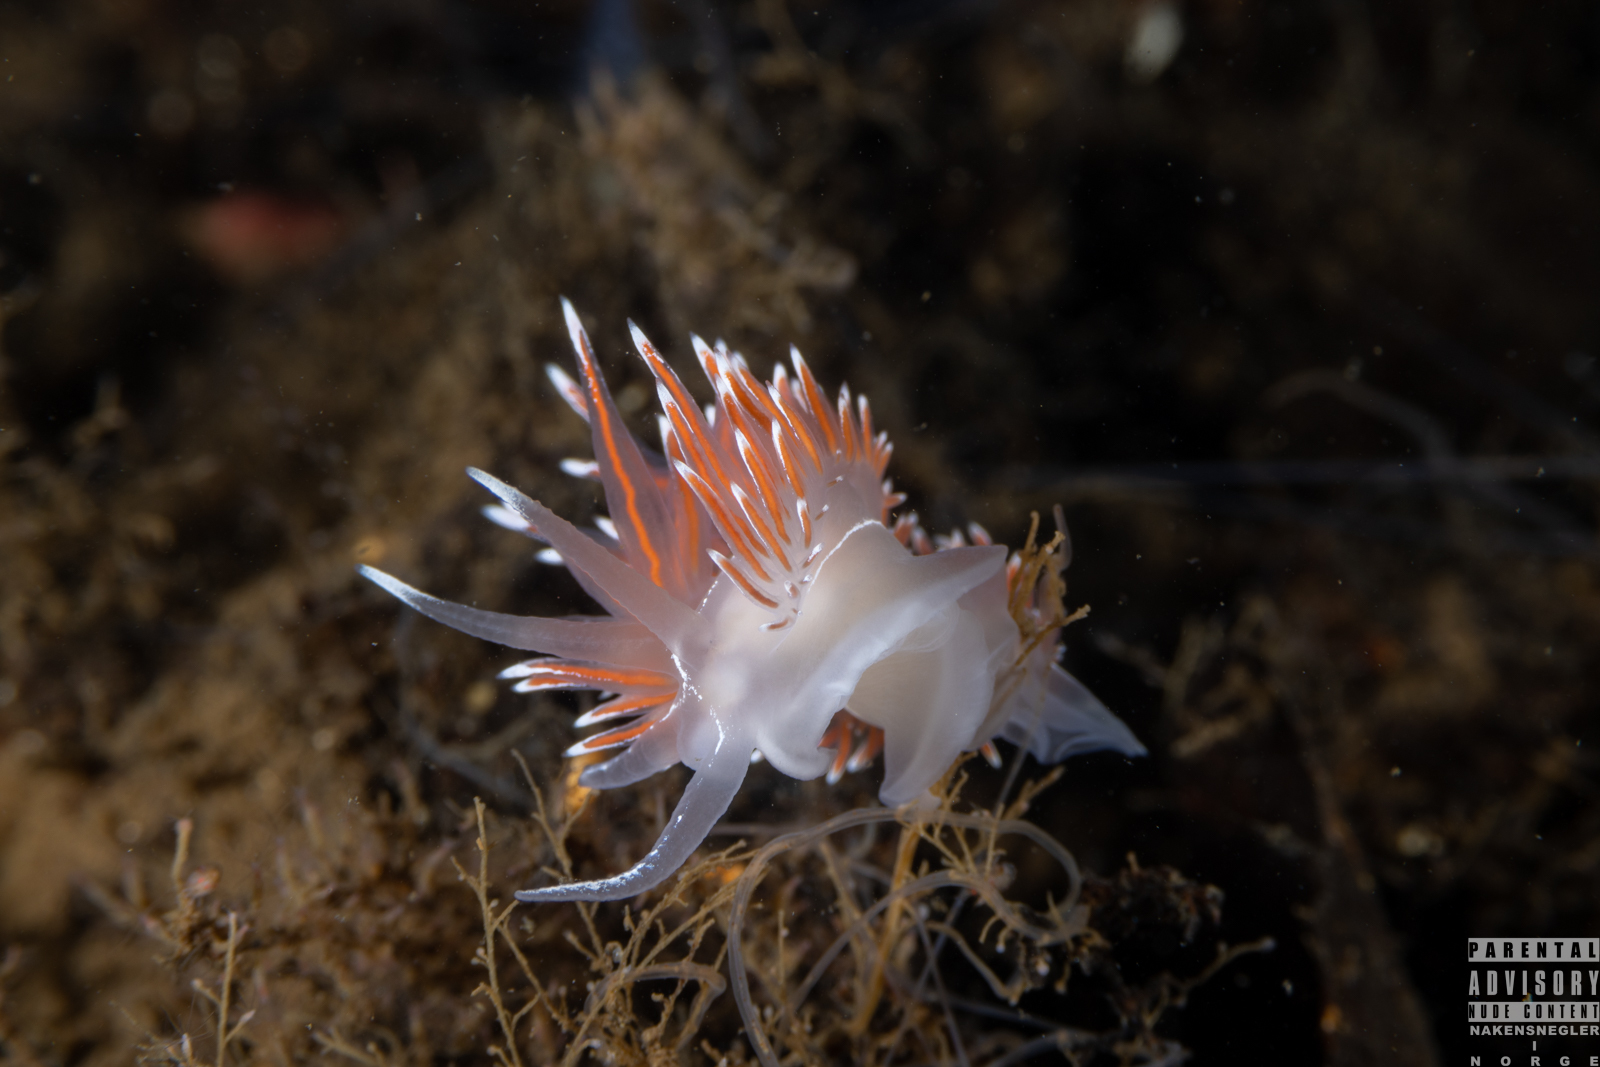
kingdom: Animalia
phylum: Mollusca
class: Gastropoda
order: Nudibranchia
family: Coryphellidae
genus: Coryphella
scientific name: Coryphella lineata
